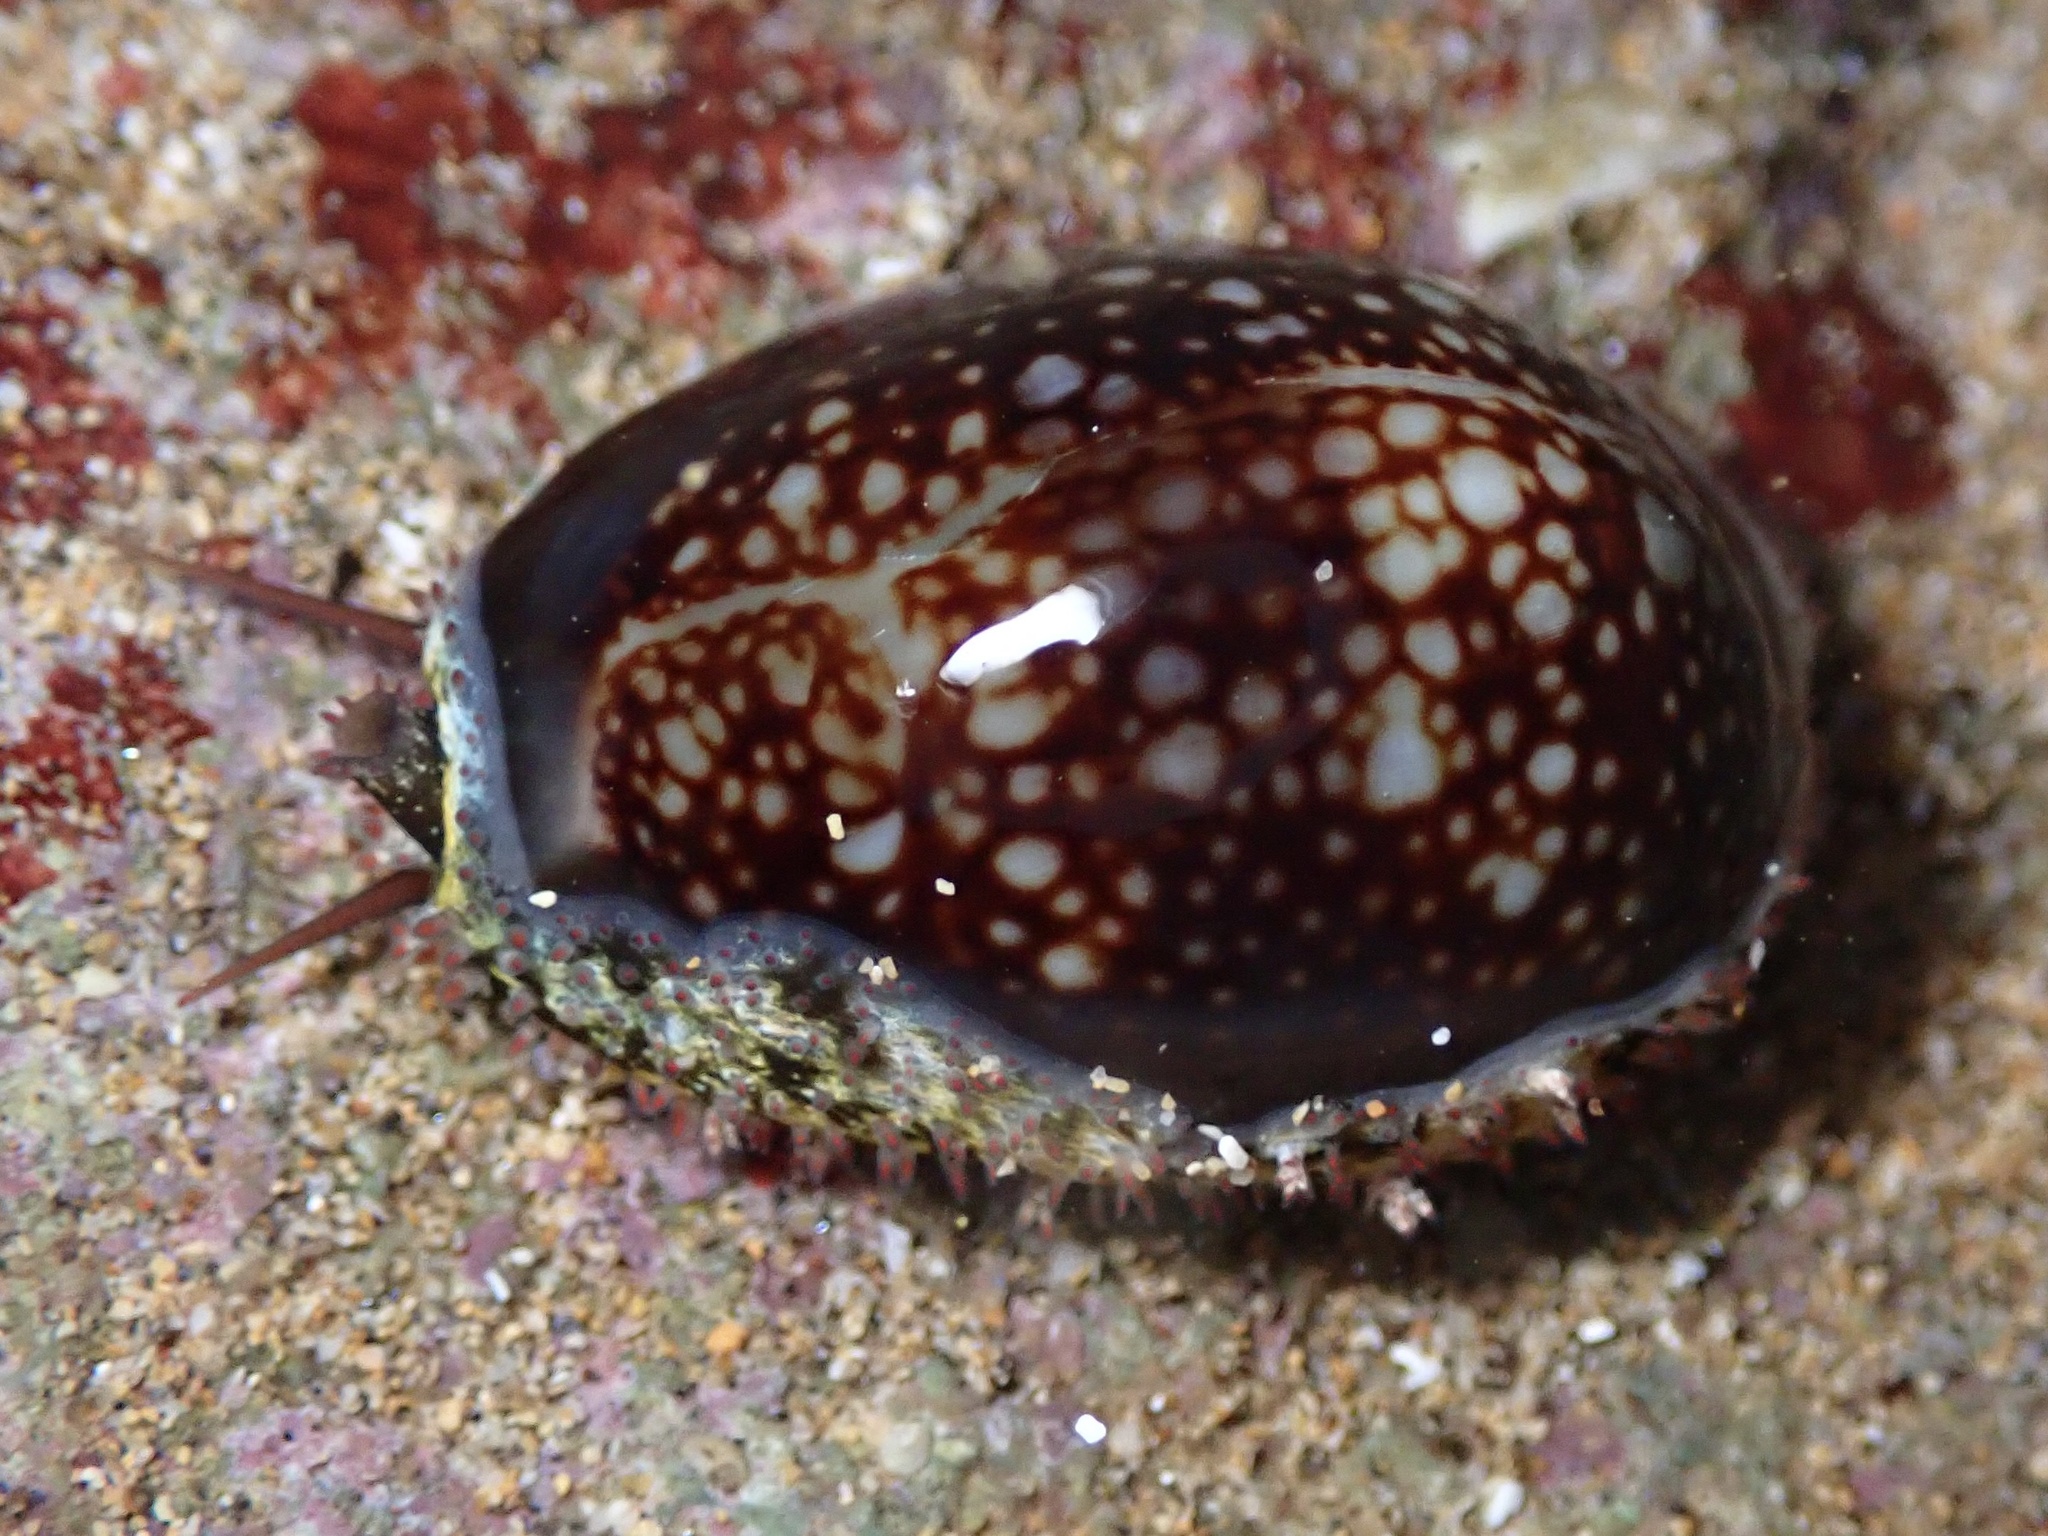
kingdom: Animalia
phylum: Mollusca
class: Gastropoda
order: Littorinimorpha
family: Cypraeidae
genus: Monetaria
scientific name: Monetaria caputophidii
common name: Snake's head cowry
